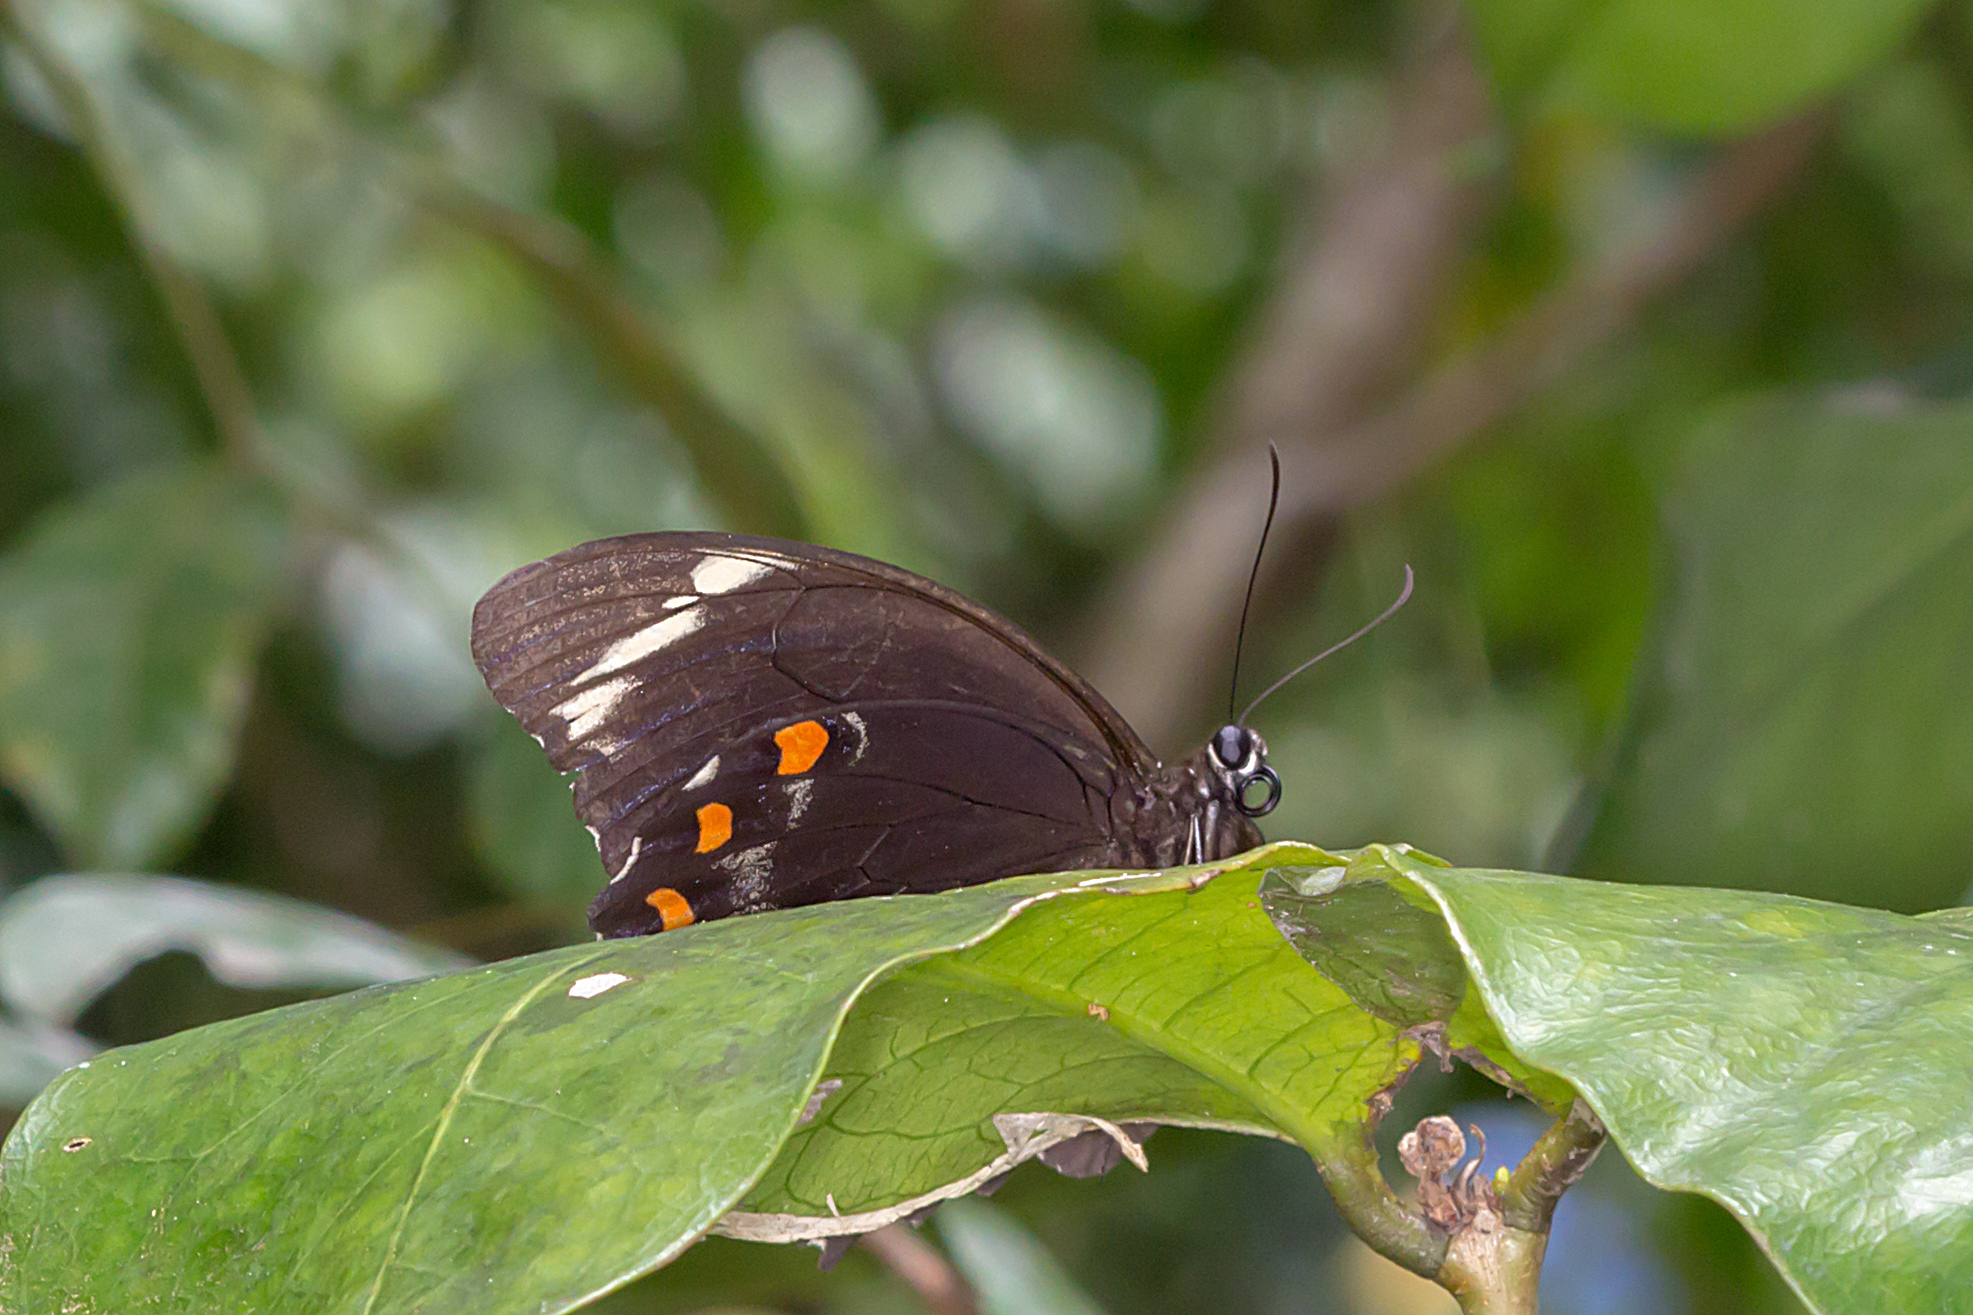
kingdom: Animalia
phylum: Arthropoda
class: Insecta
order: Lepidoptera
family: Papilionidae
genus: Papilio
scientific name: Papilio aegeus
